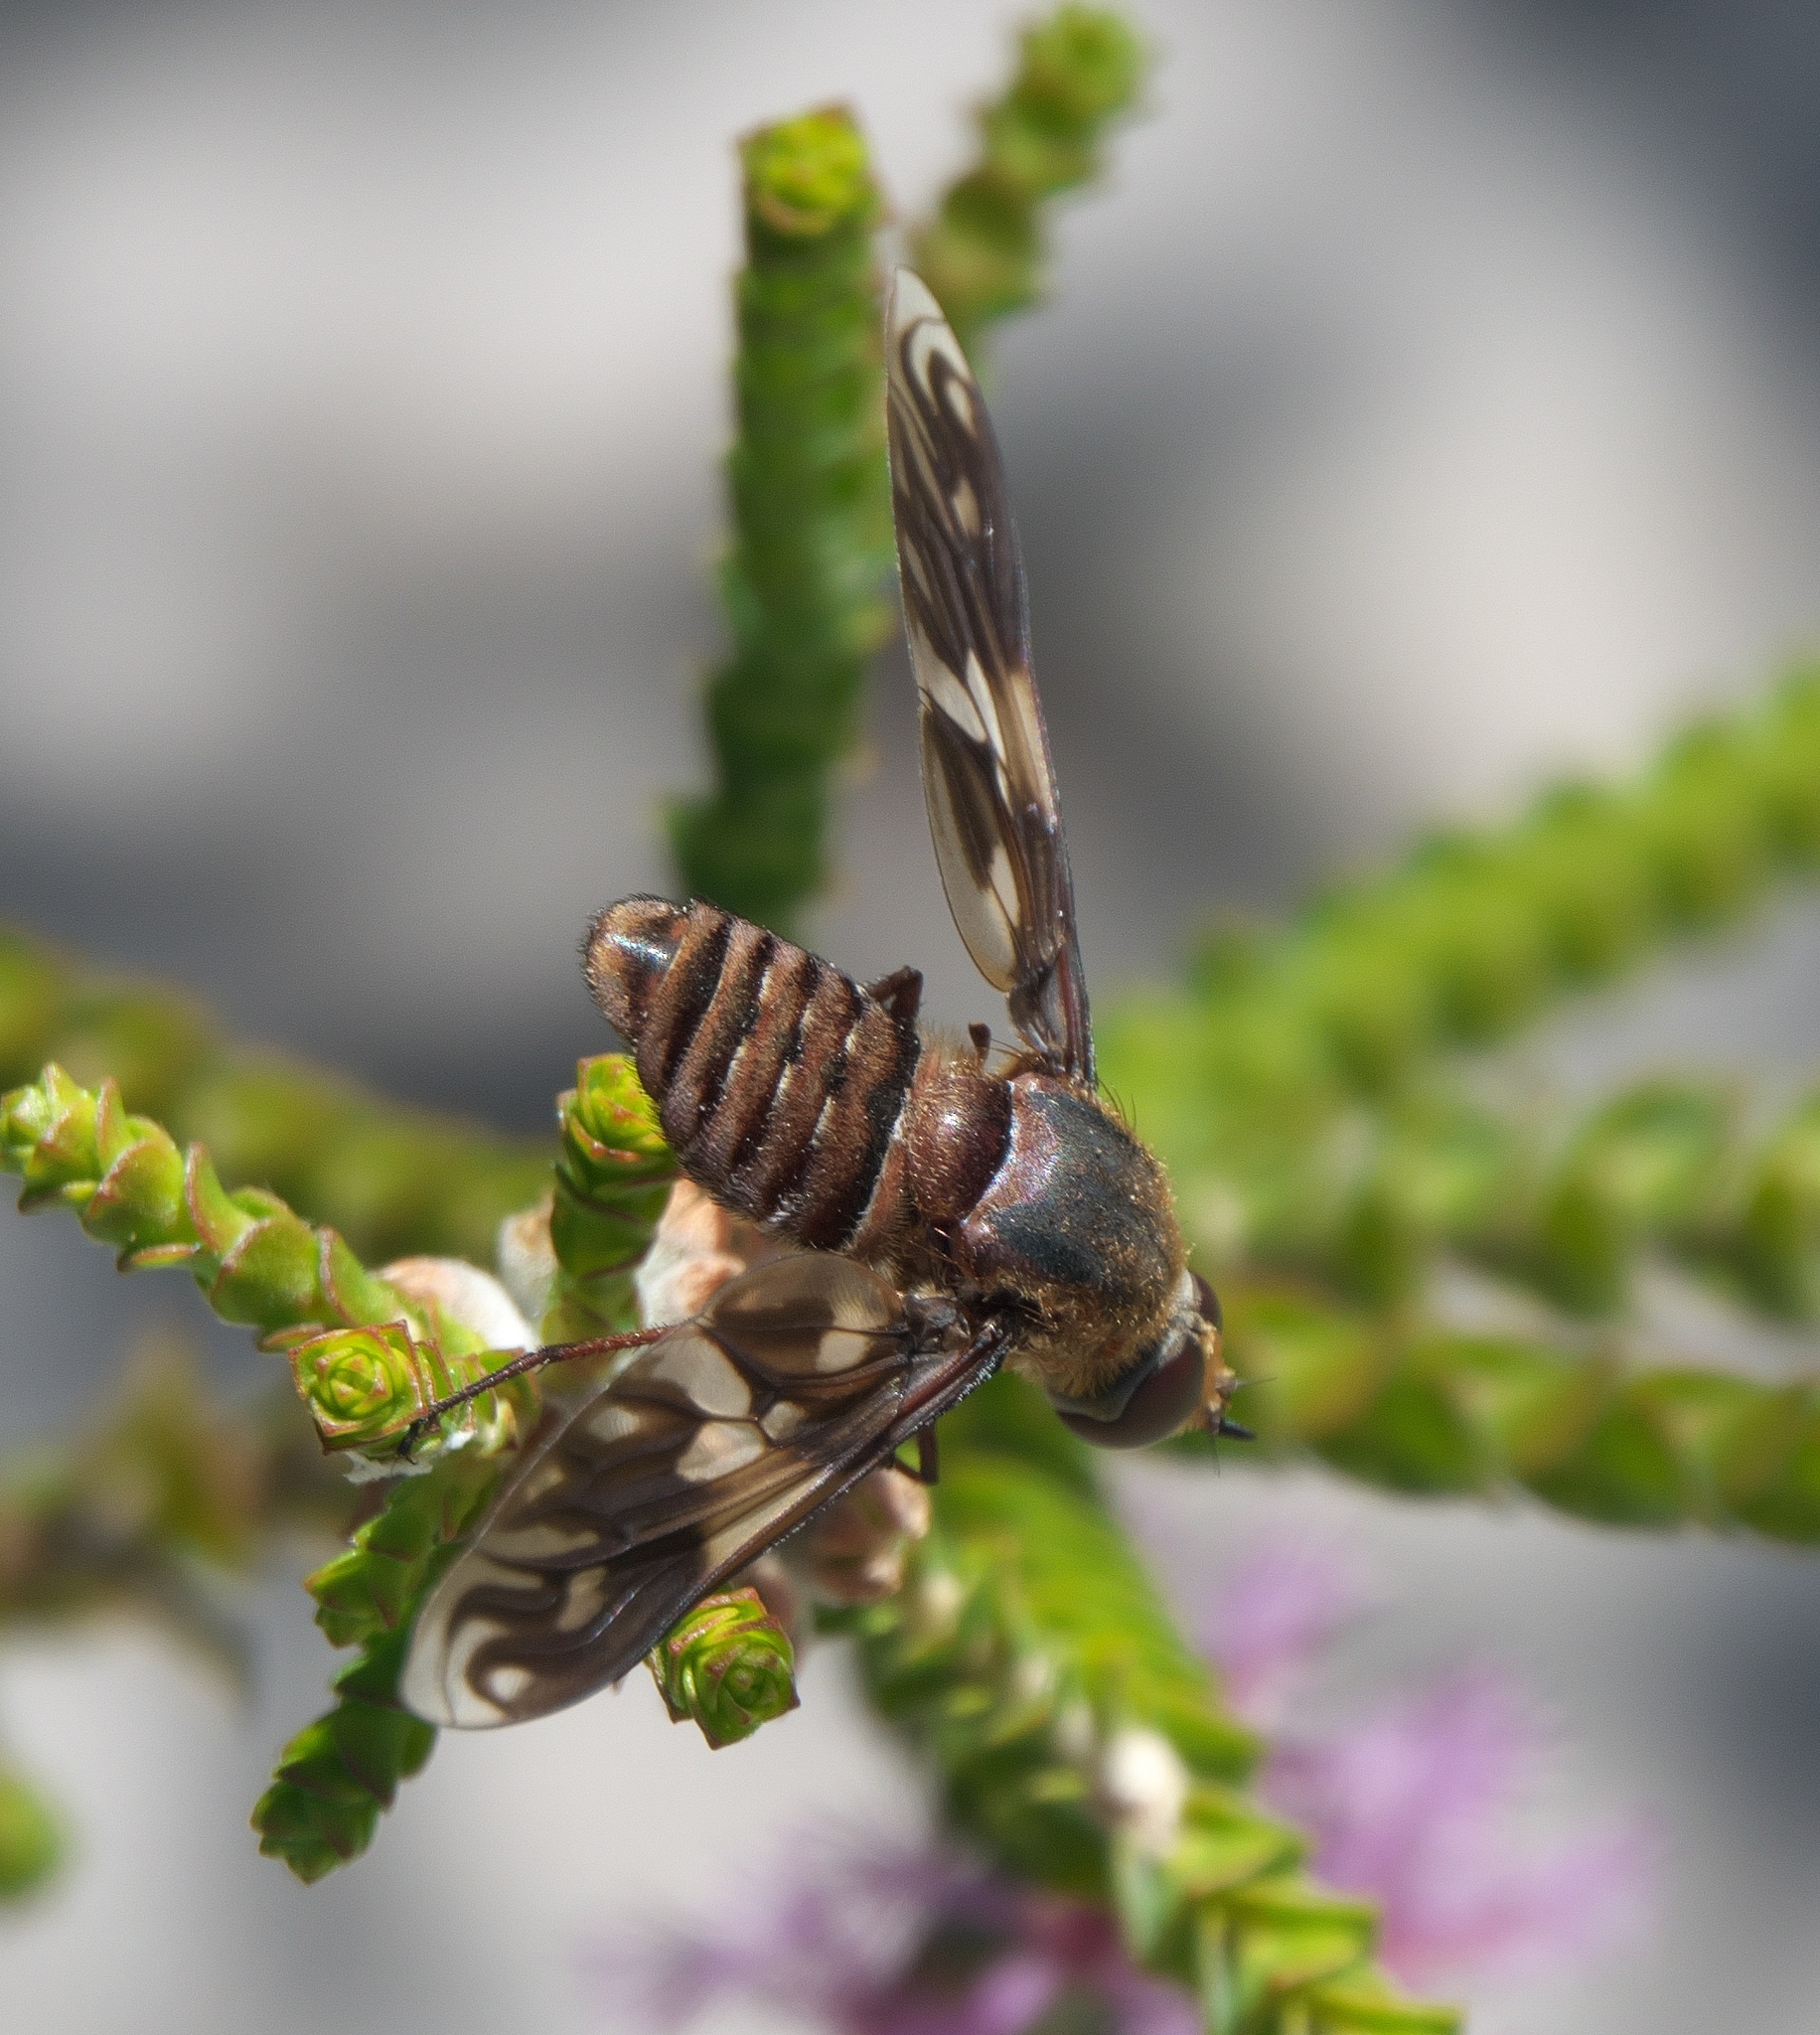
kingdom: Animalia
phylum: Arthropoda
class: Insecta
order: Diptera
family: Bombyliidae
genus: Comptosia
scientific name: Comptosia tendens
